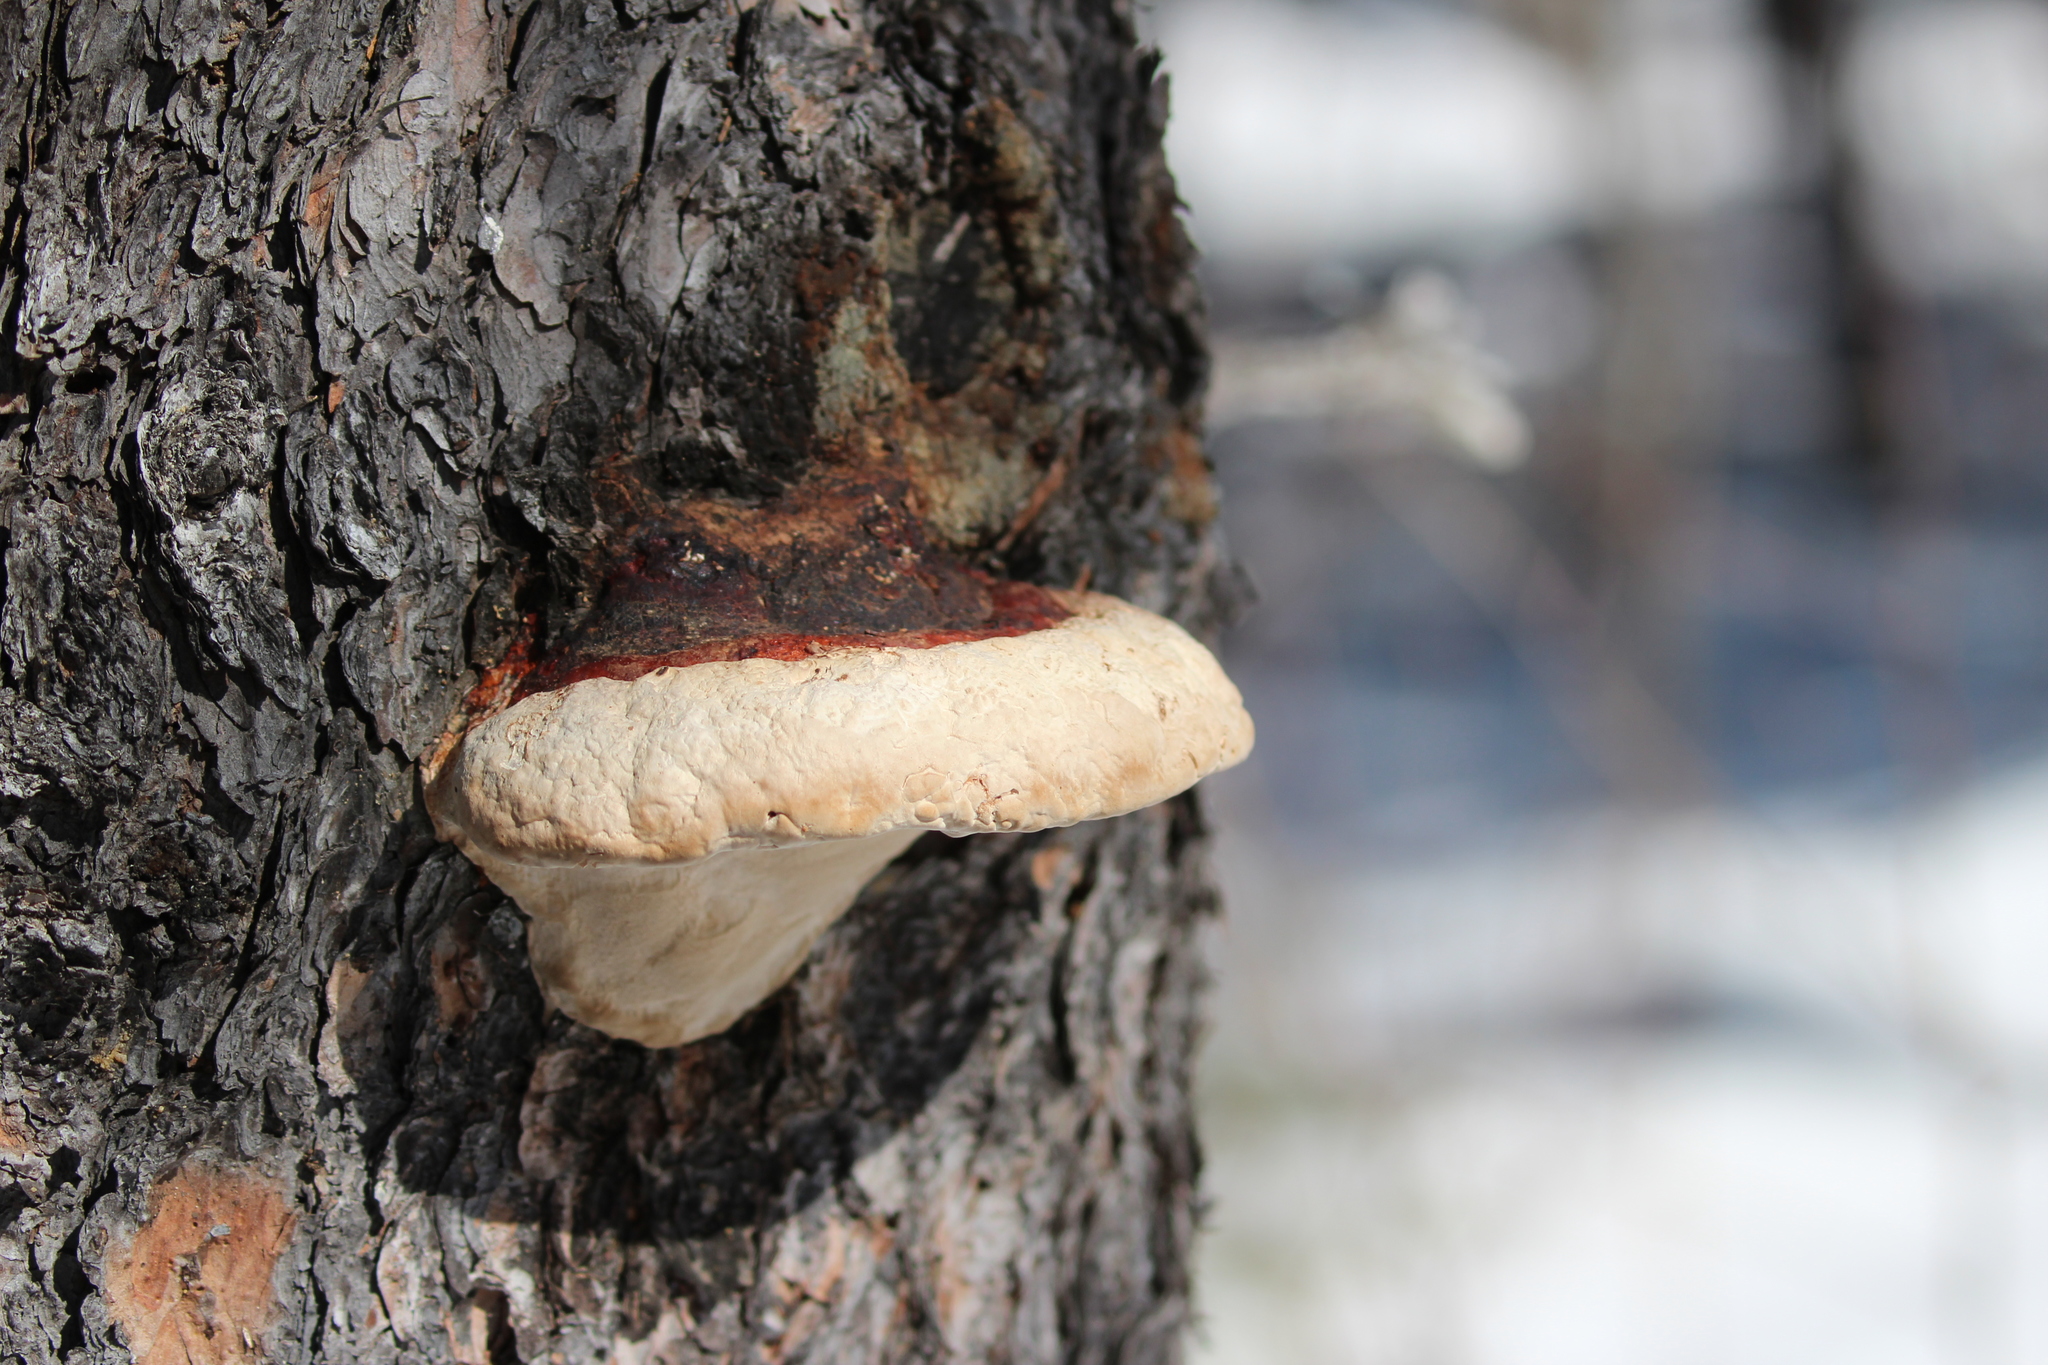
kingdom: Fungi
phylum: Basidiomycota
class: Agaricomycetes
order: Polyporales
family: Fomitopsidaceae
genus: Fomitopsis
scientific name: Fomitopsis mounceae
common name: Northern red belt
